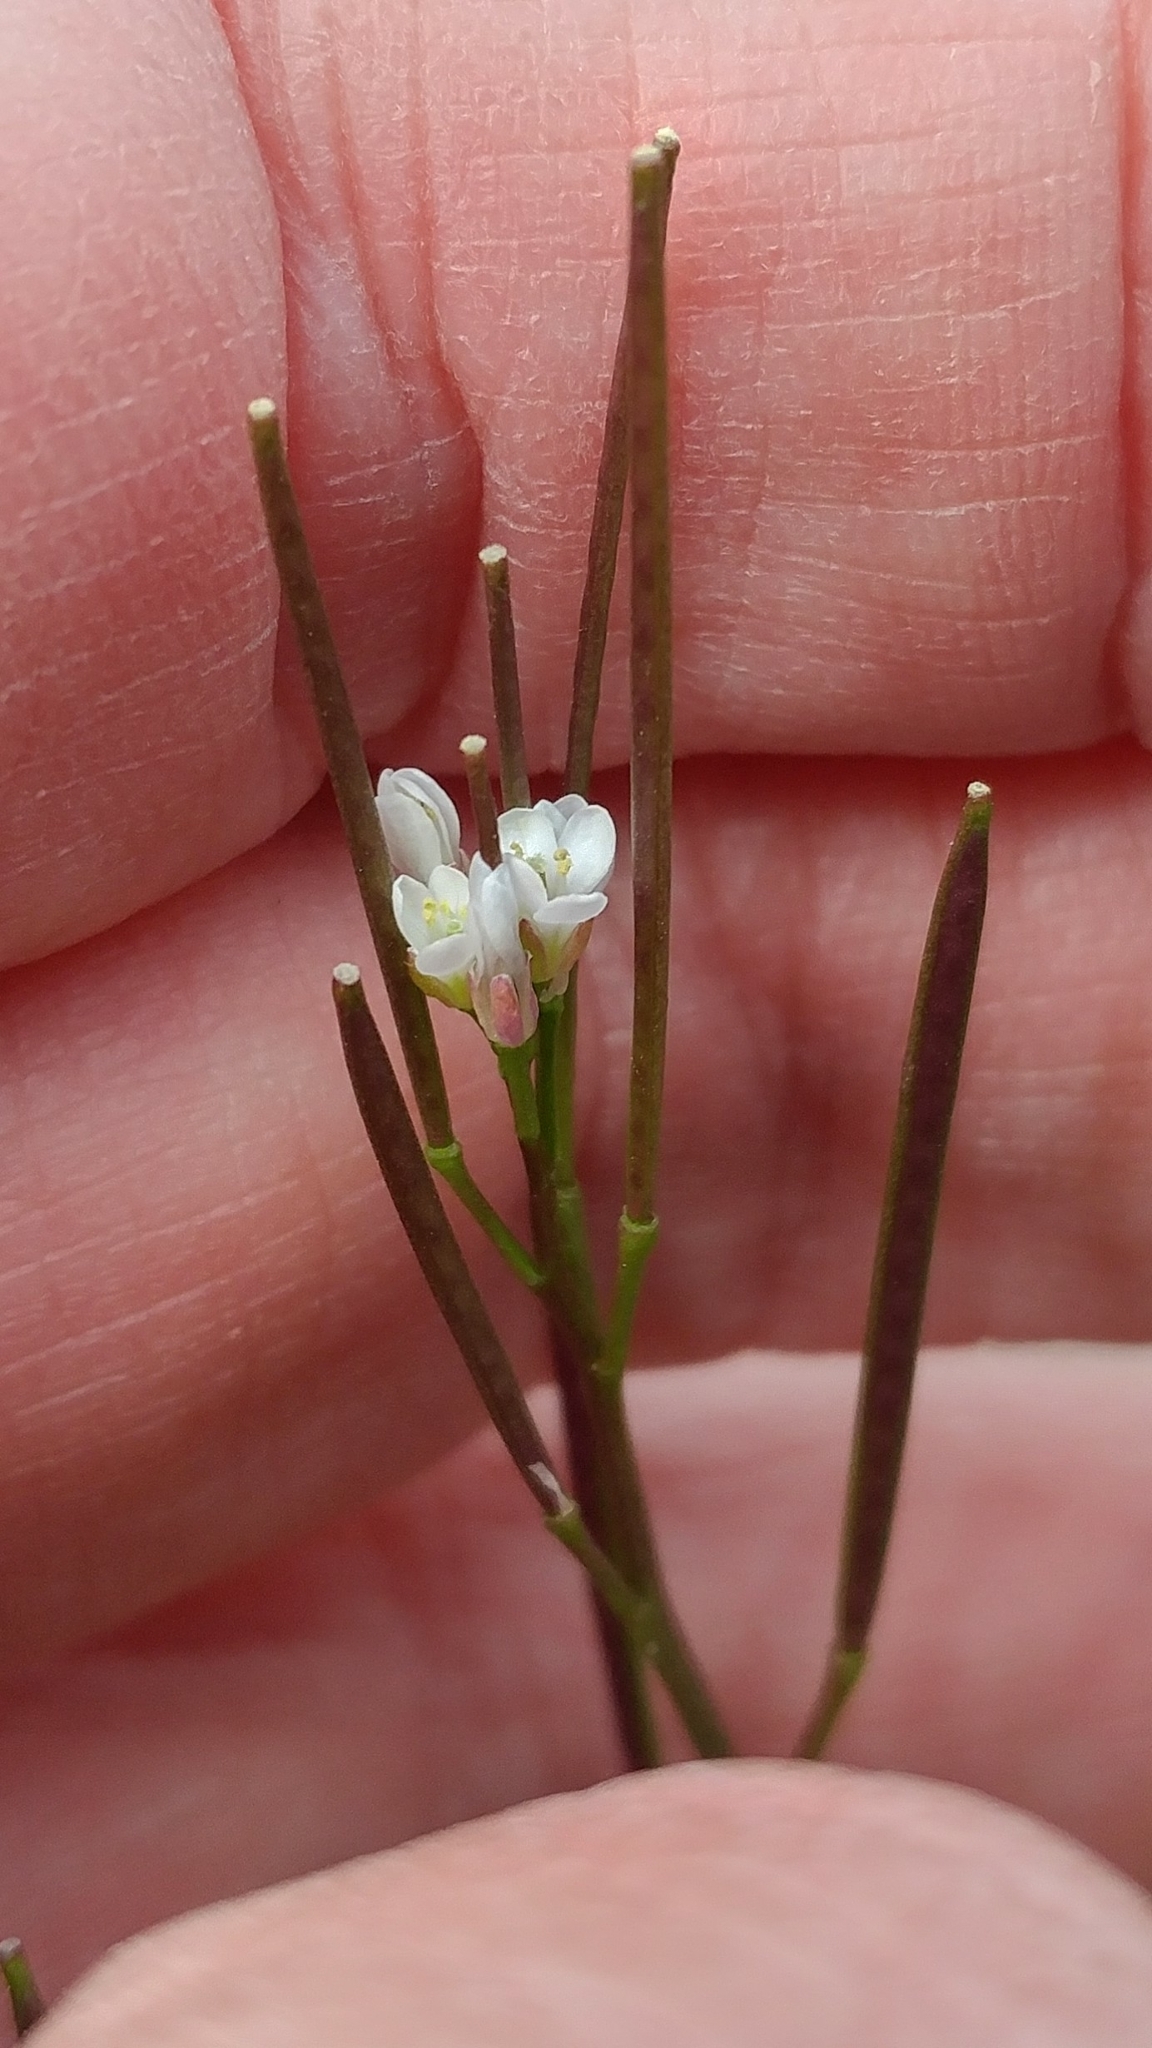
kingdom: Plantae
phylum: Tracheophyta
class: Magnoliopsida
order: Brassicales
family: Brassicaceae
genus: Cardamine
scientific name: Cardamine hirsuta
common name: Hairy bittercress
